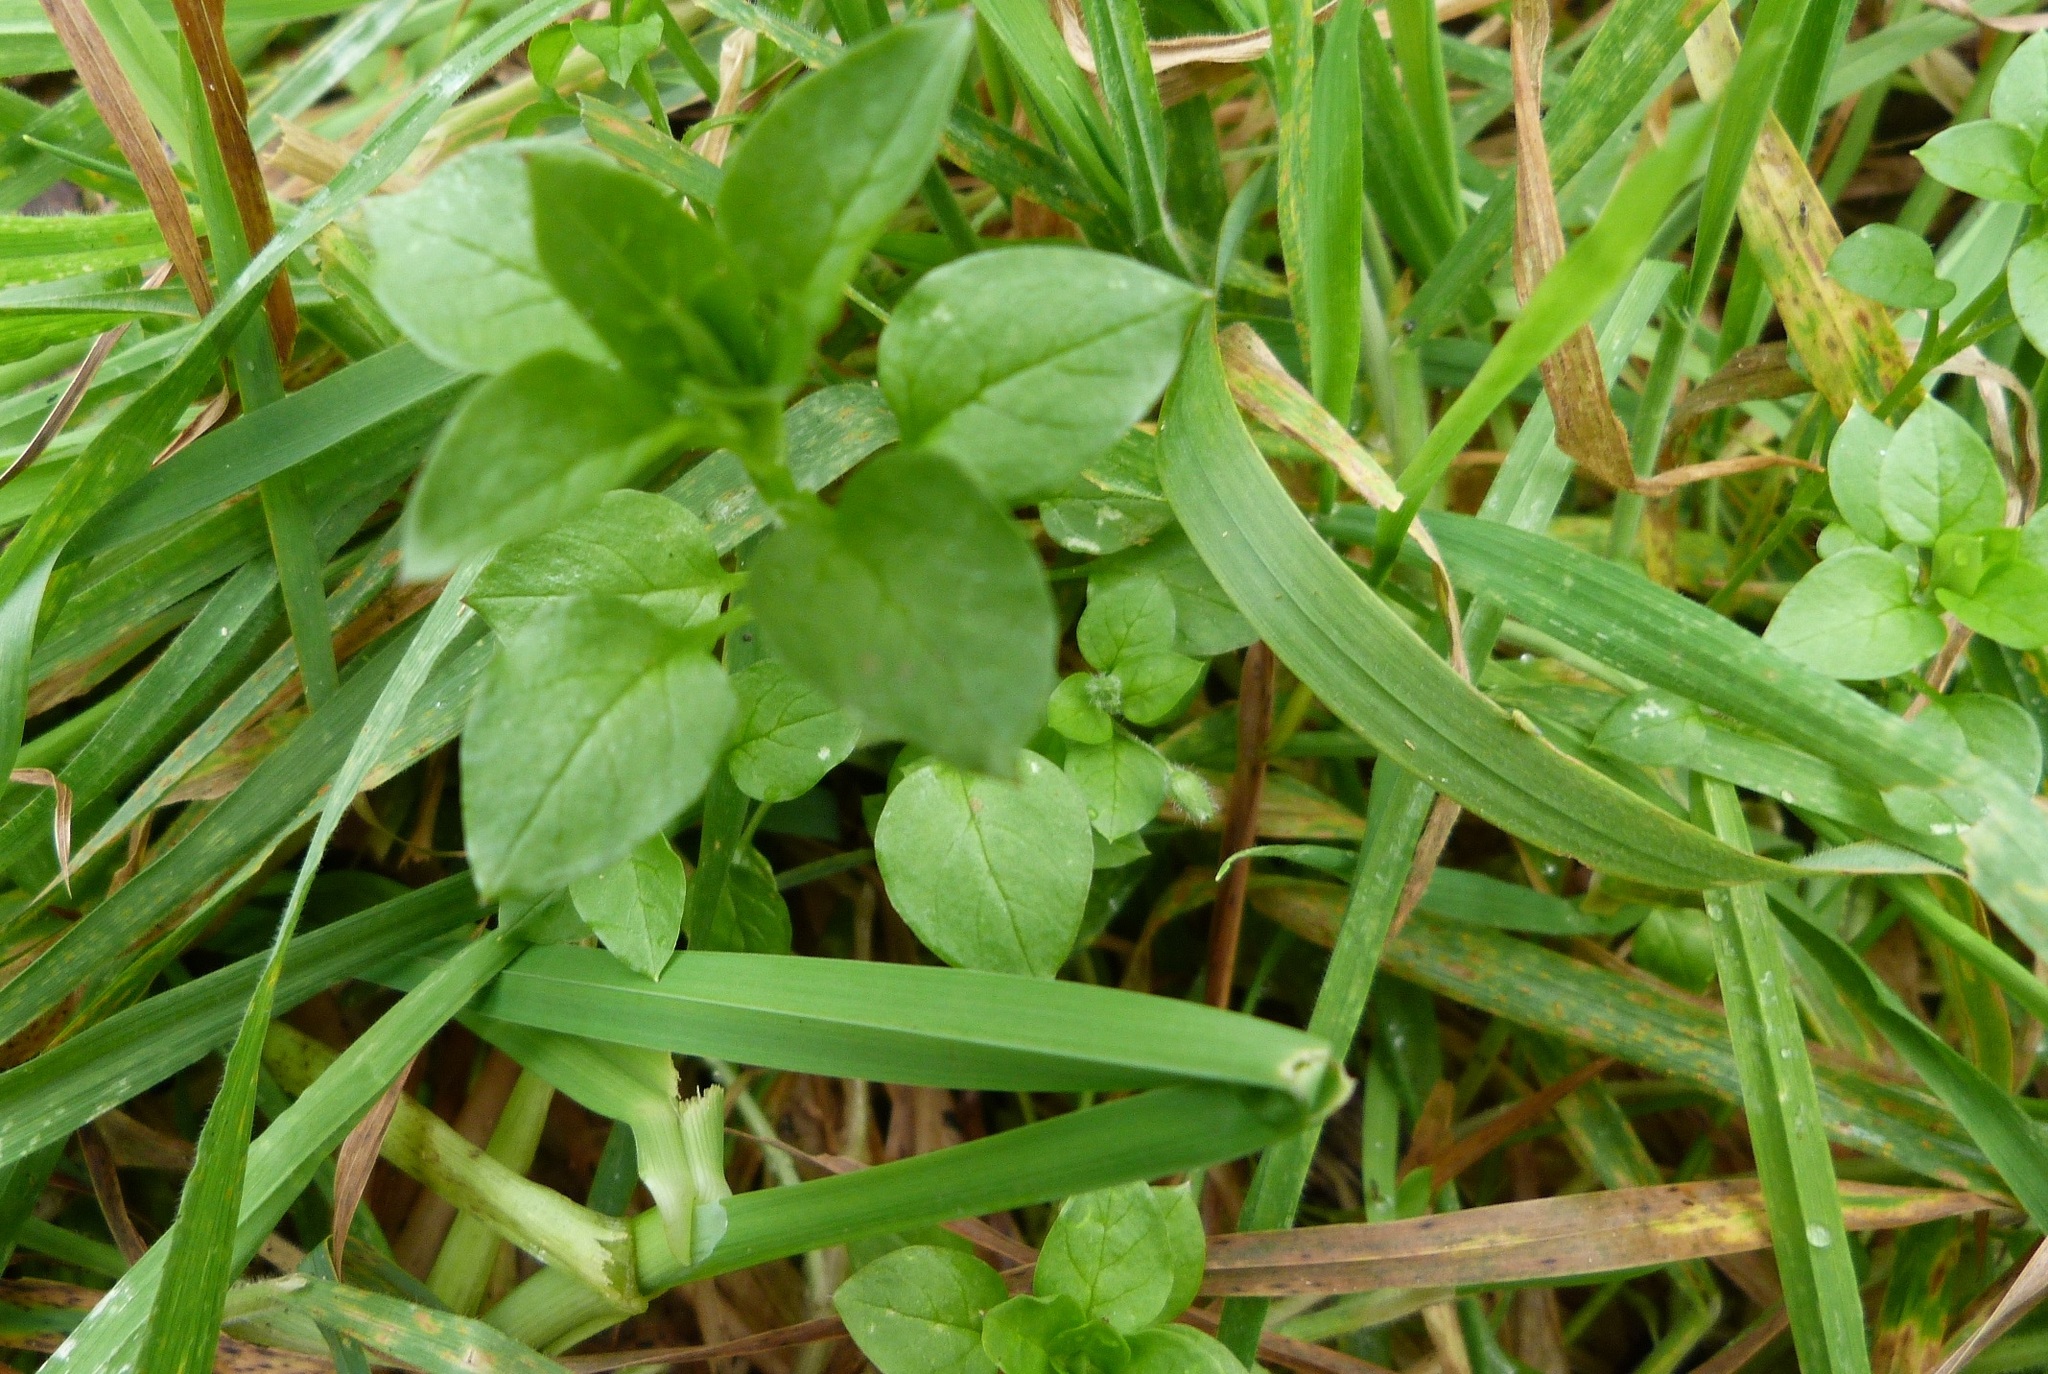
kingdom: Plantae
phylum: Tracheophyta
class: Magnoliopsida
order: Caryophyllales
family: Caryophyllaceae
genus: Stellaria
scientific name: Stellaria media
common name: Common chickweed
